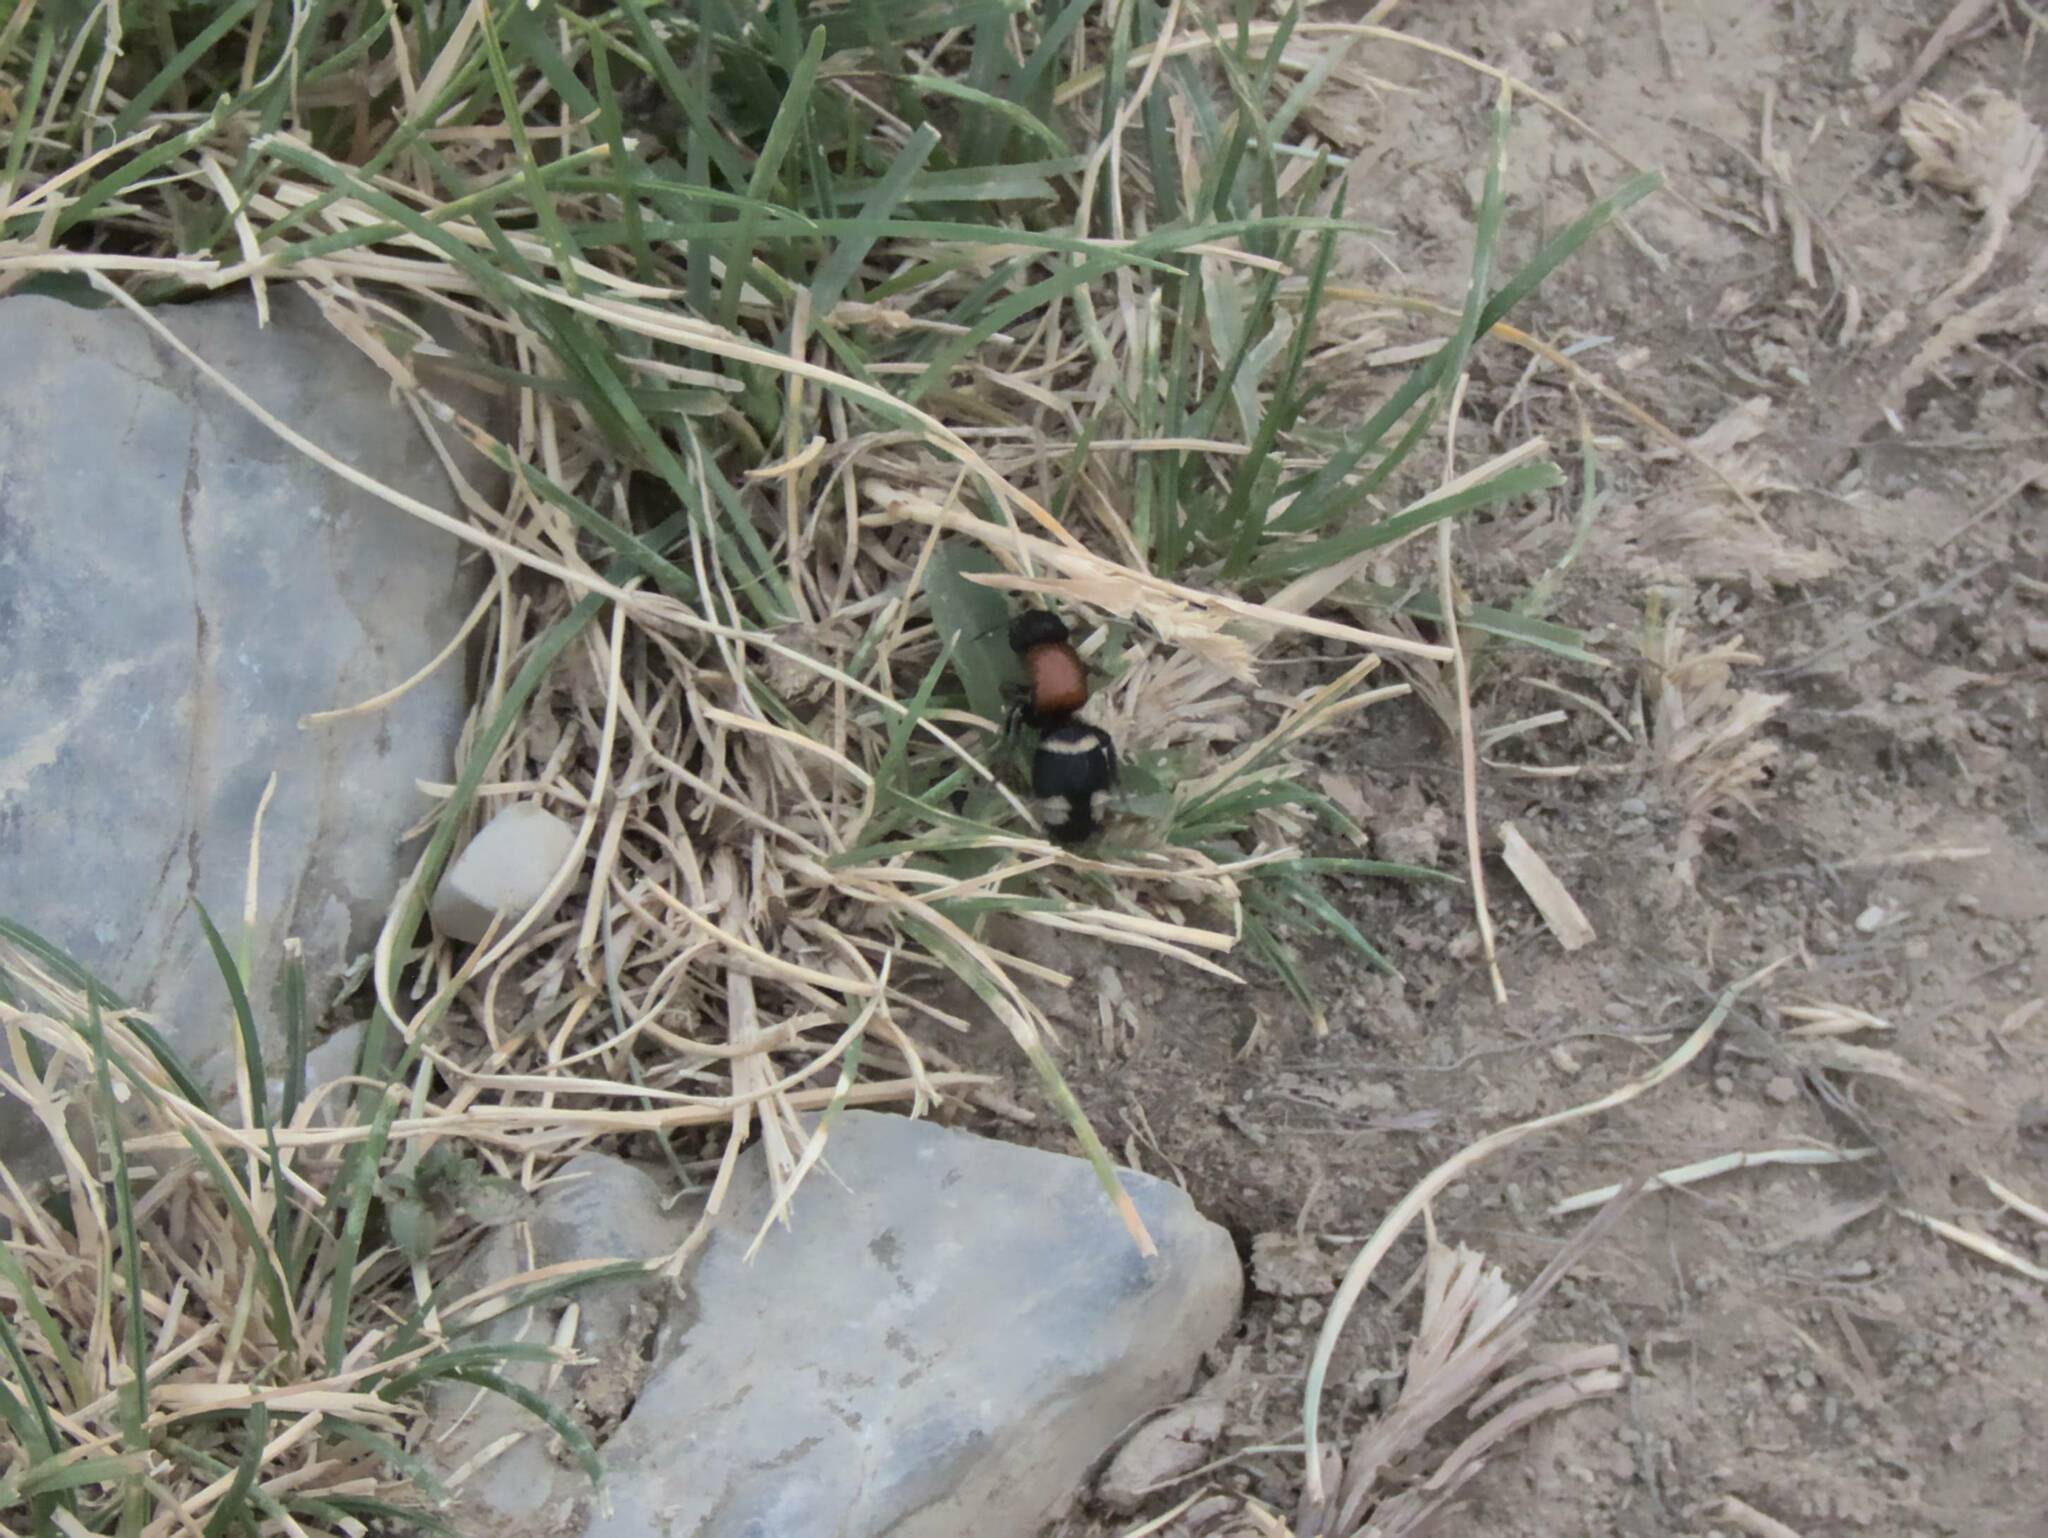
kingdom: Animalia
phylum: Arthropoda
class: Insecta
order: Hymenoptera
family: Mutillidae
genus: Mutilla
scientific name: Mutilla europaea
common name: Large velvet ant
